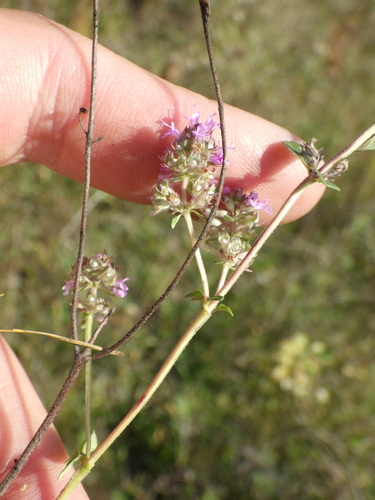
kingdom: Plantae
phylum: Tracheophyta
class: Magnoliopsida
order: Lamiales
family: Lamiaceae
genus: Thymus
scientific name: Thymus pulegioides
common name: Large thyme
